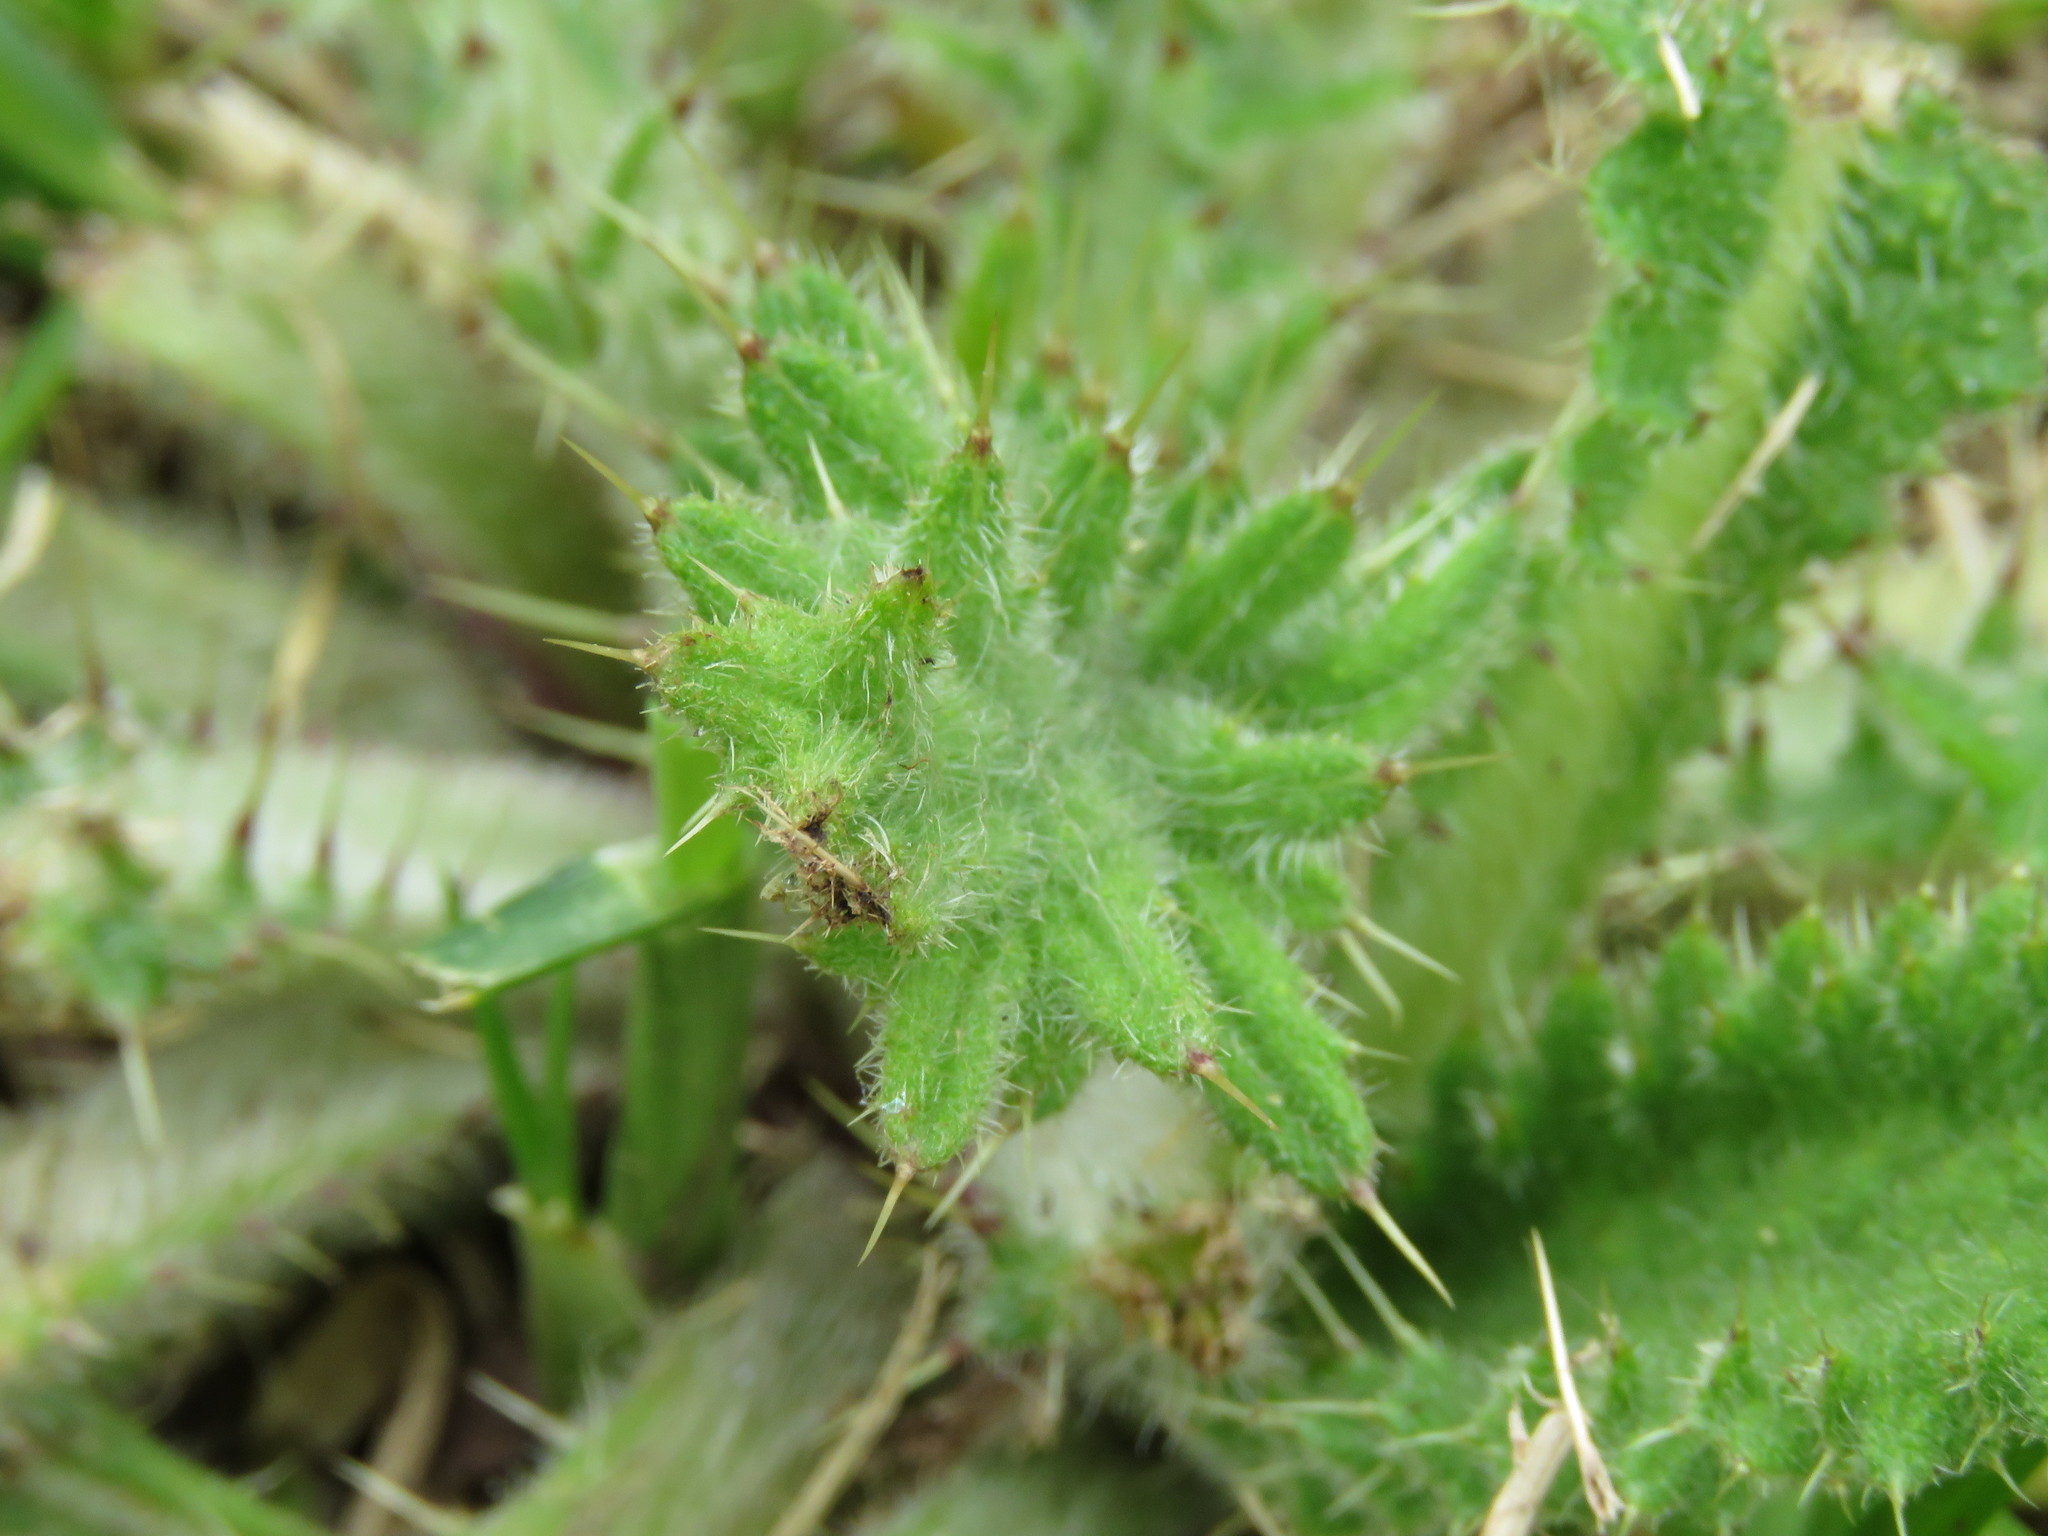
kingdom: Plantae
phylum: Tracheophyta
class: Magnoliopsida
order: Asterales
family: Asteraceae
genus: Cirsium
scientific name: Cirsium vulgare
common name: Bull thistle
